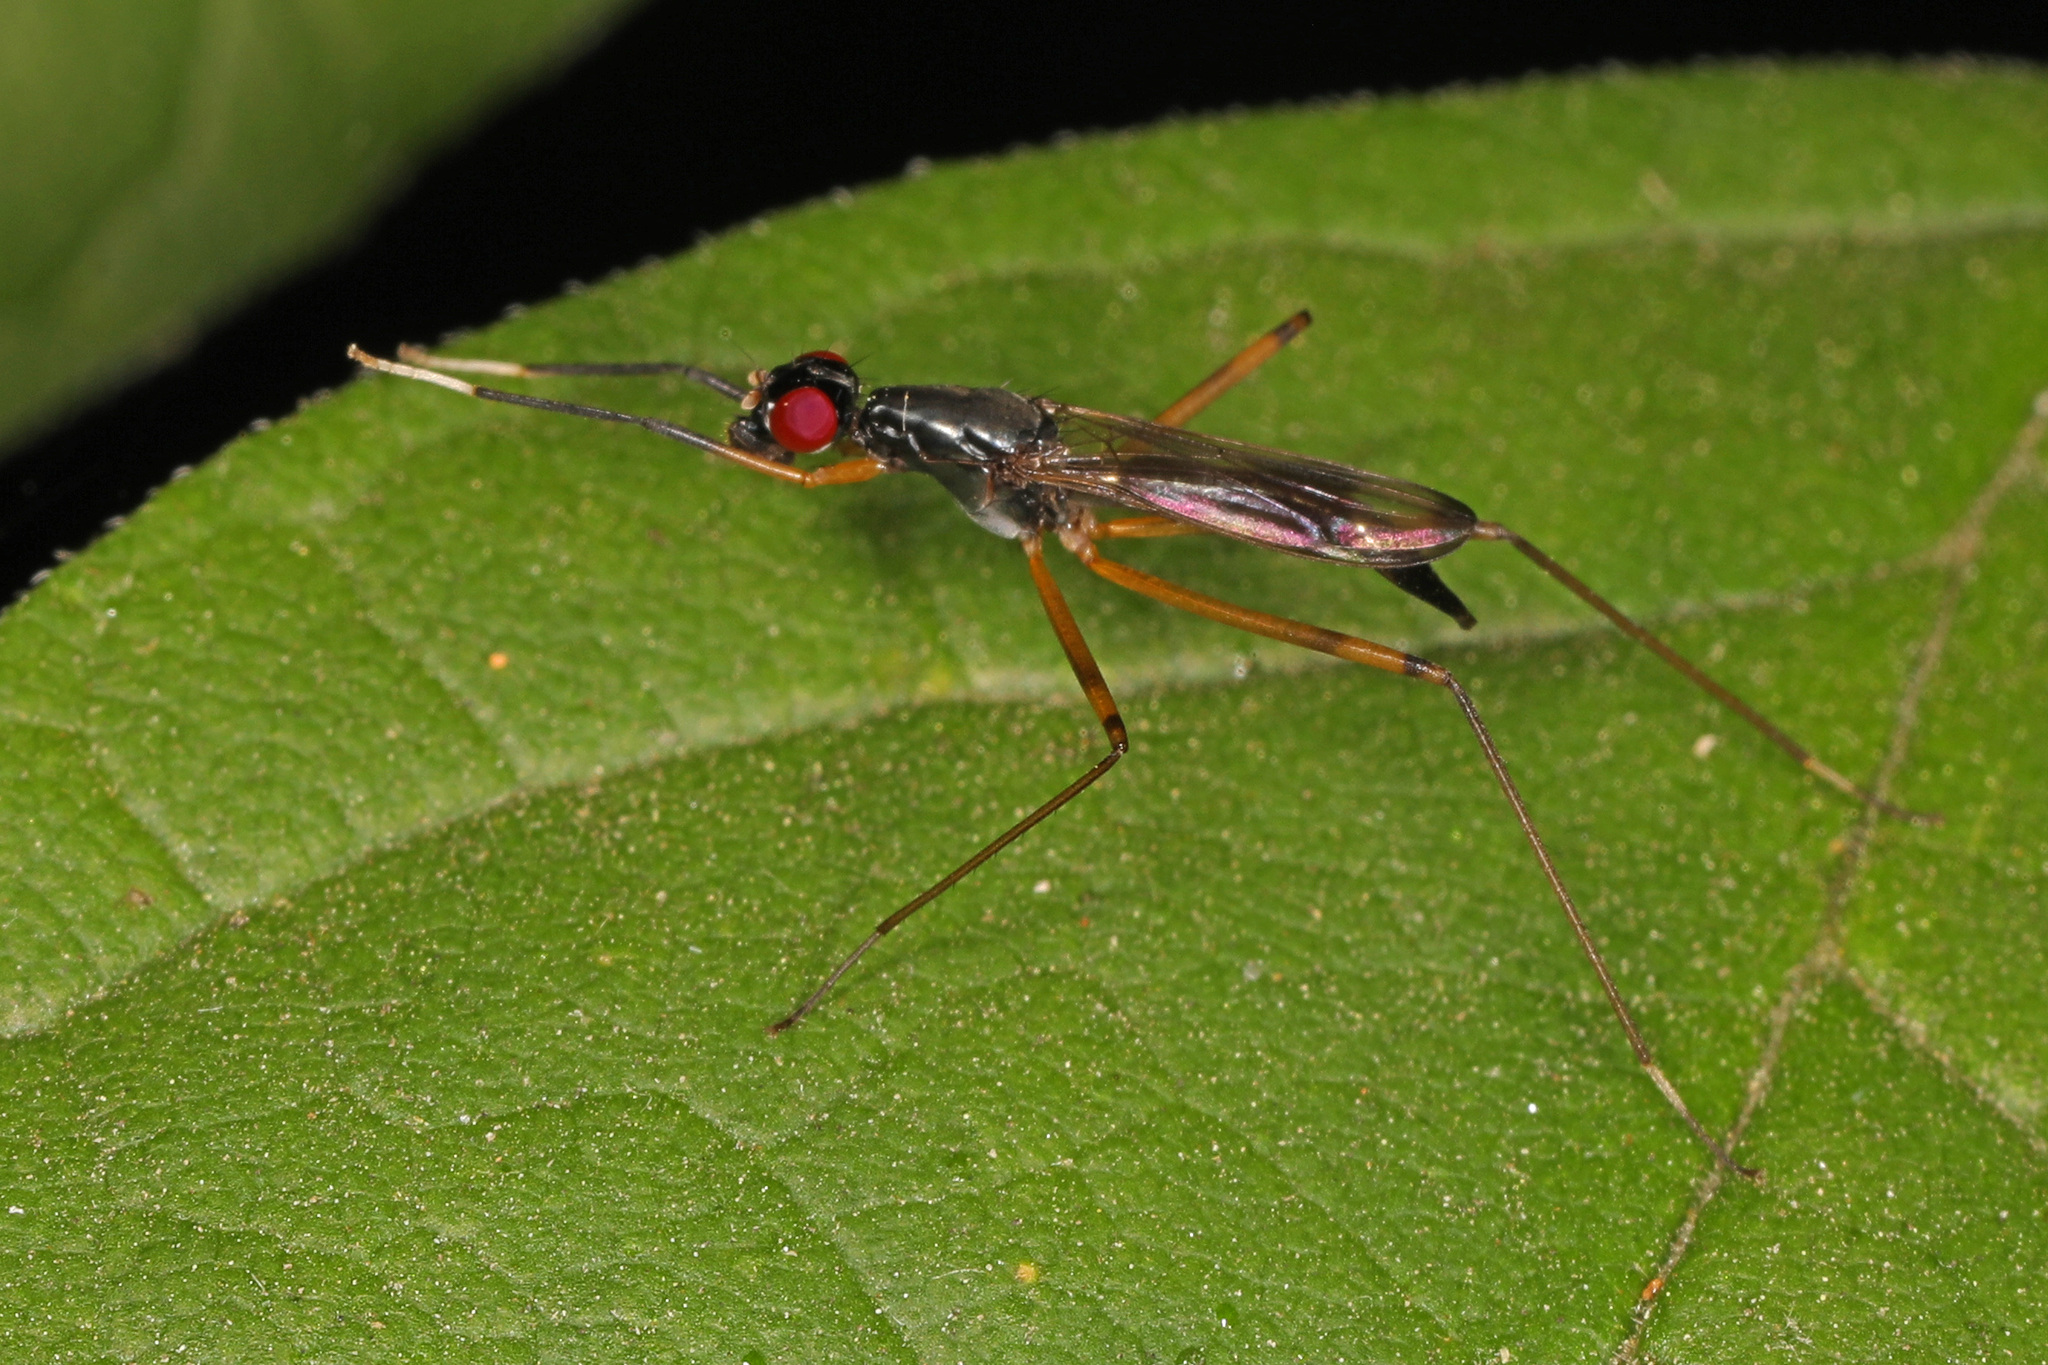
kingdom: Animalia
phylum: Arthropoda
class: Insecta
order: Diptera
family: Micropezidae
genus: Rainieria
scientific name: Rainieria antennaepes
